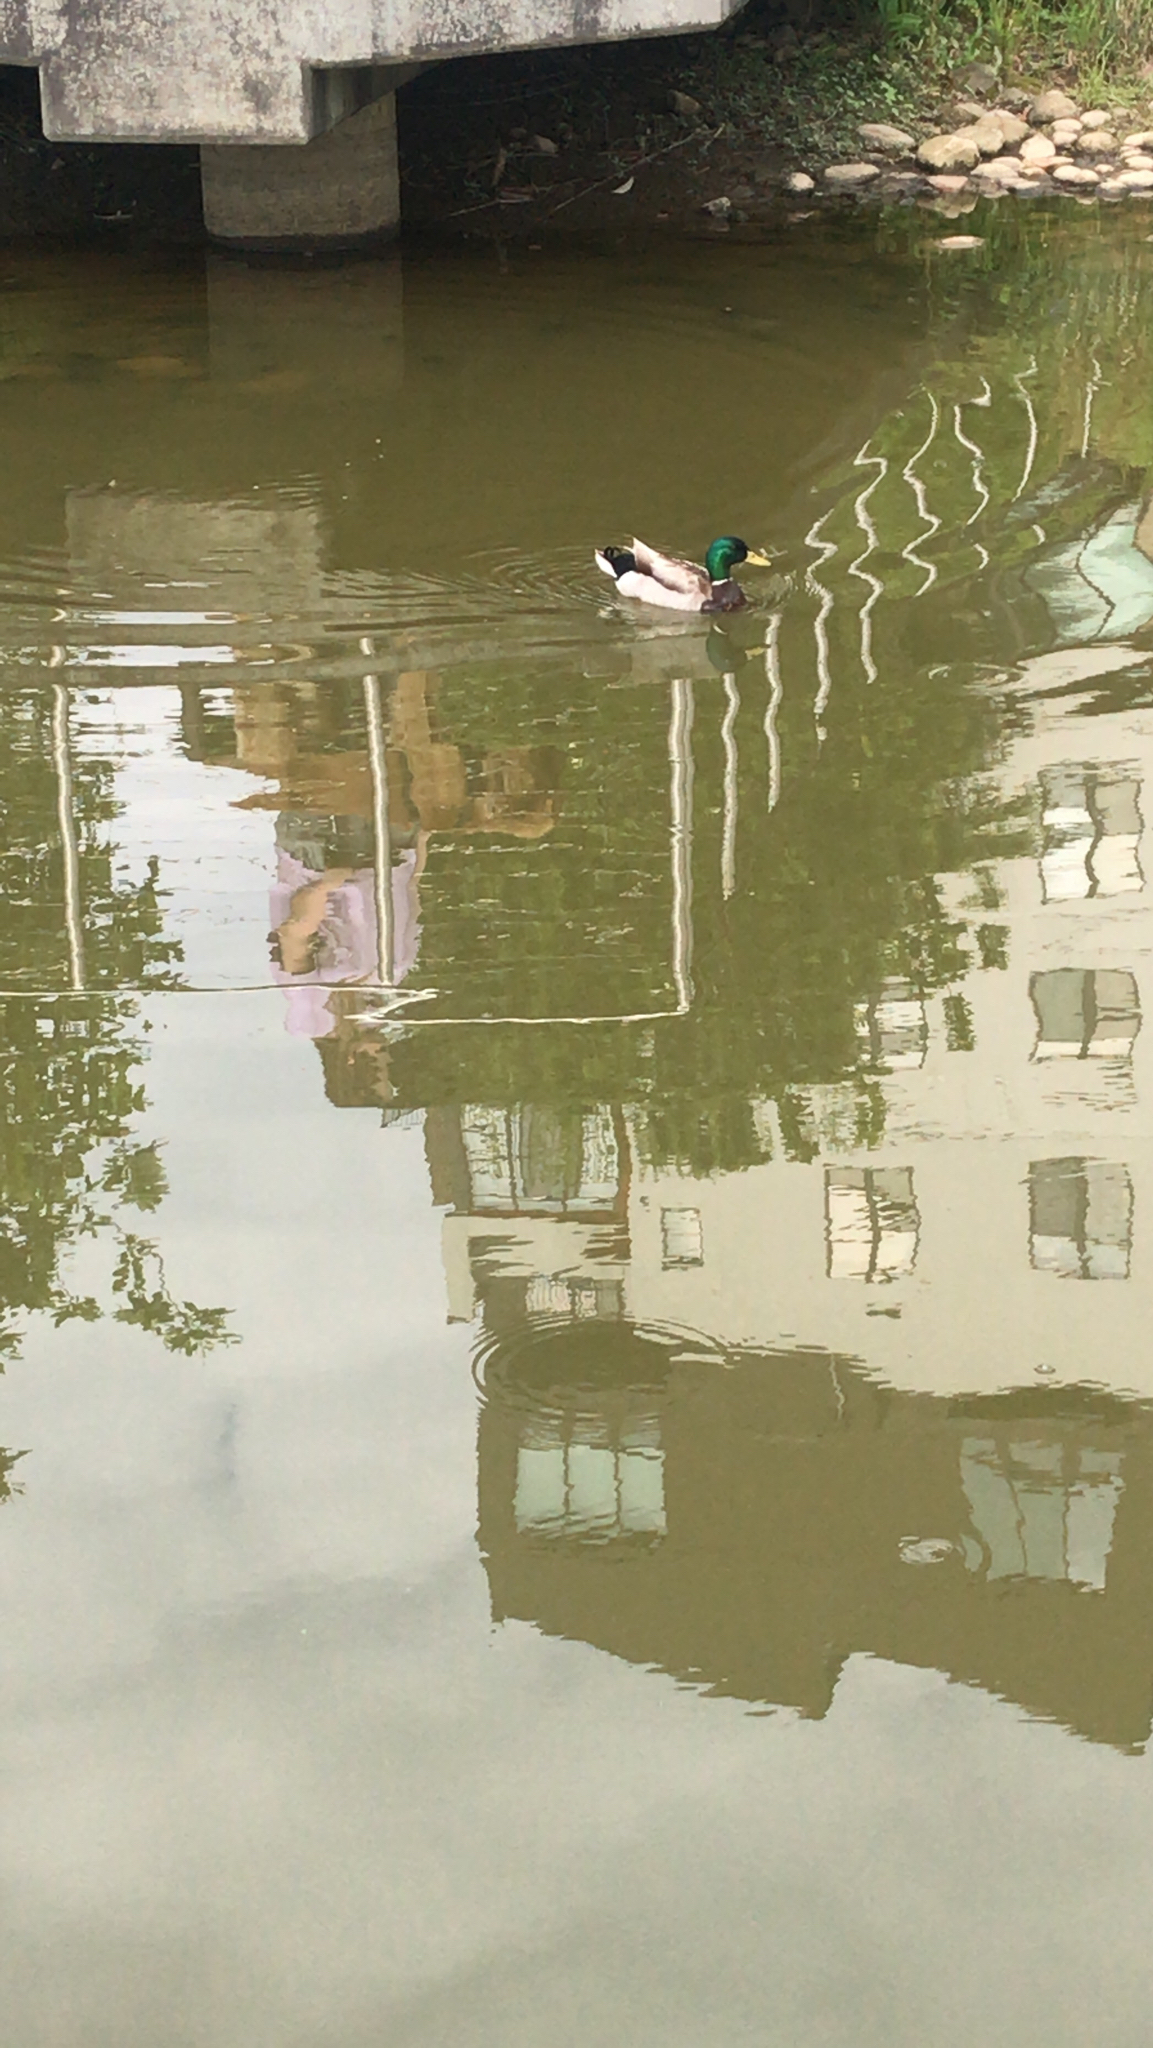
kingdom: Animalia
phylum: Chordata
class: Aves
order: Anseriformes
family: Anatidae
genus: Anas
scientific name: Anas platyrhynchos
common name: Mallard
